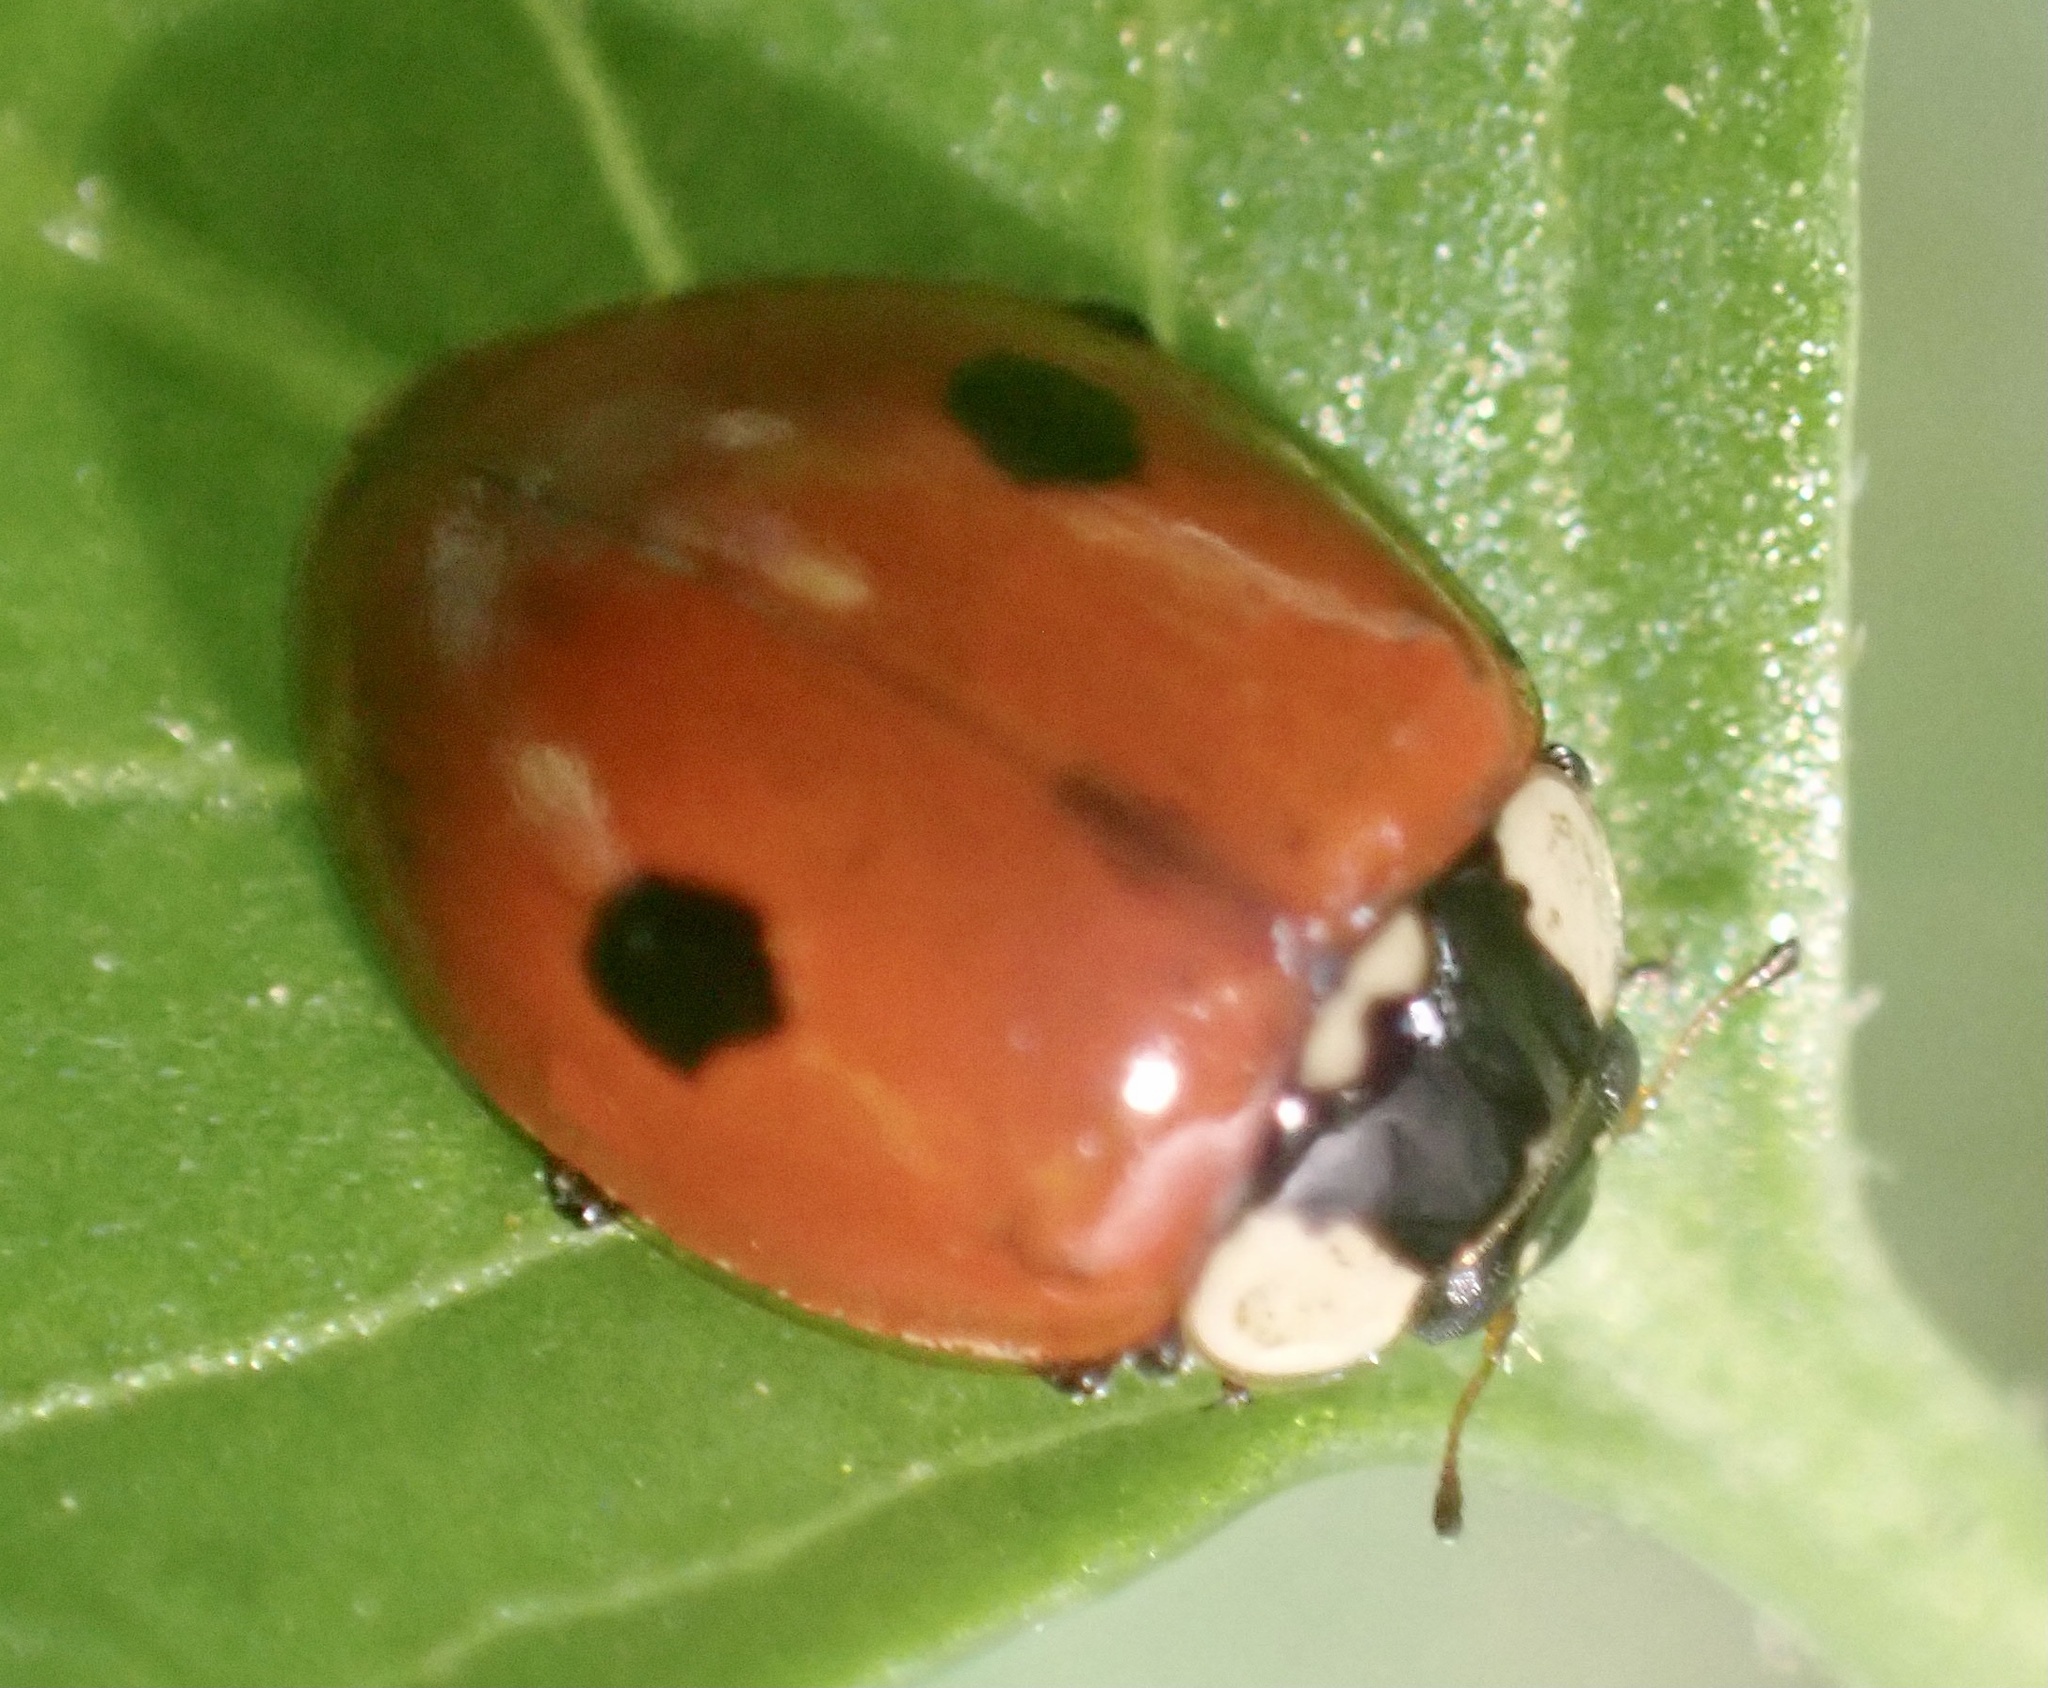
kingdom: Animalia
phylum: Arthropoda
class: Insecta
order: Coleoptera
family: Coccinellidae
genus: Adalia
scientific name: Adalia bipunctata
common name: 2-spot ladybird
